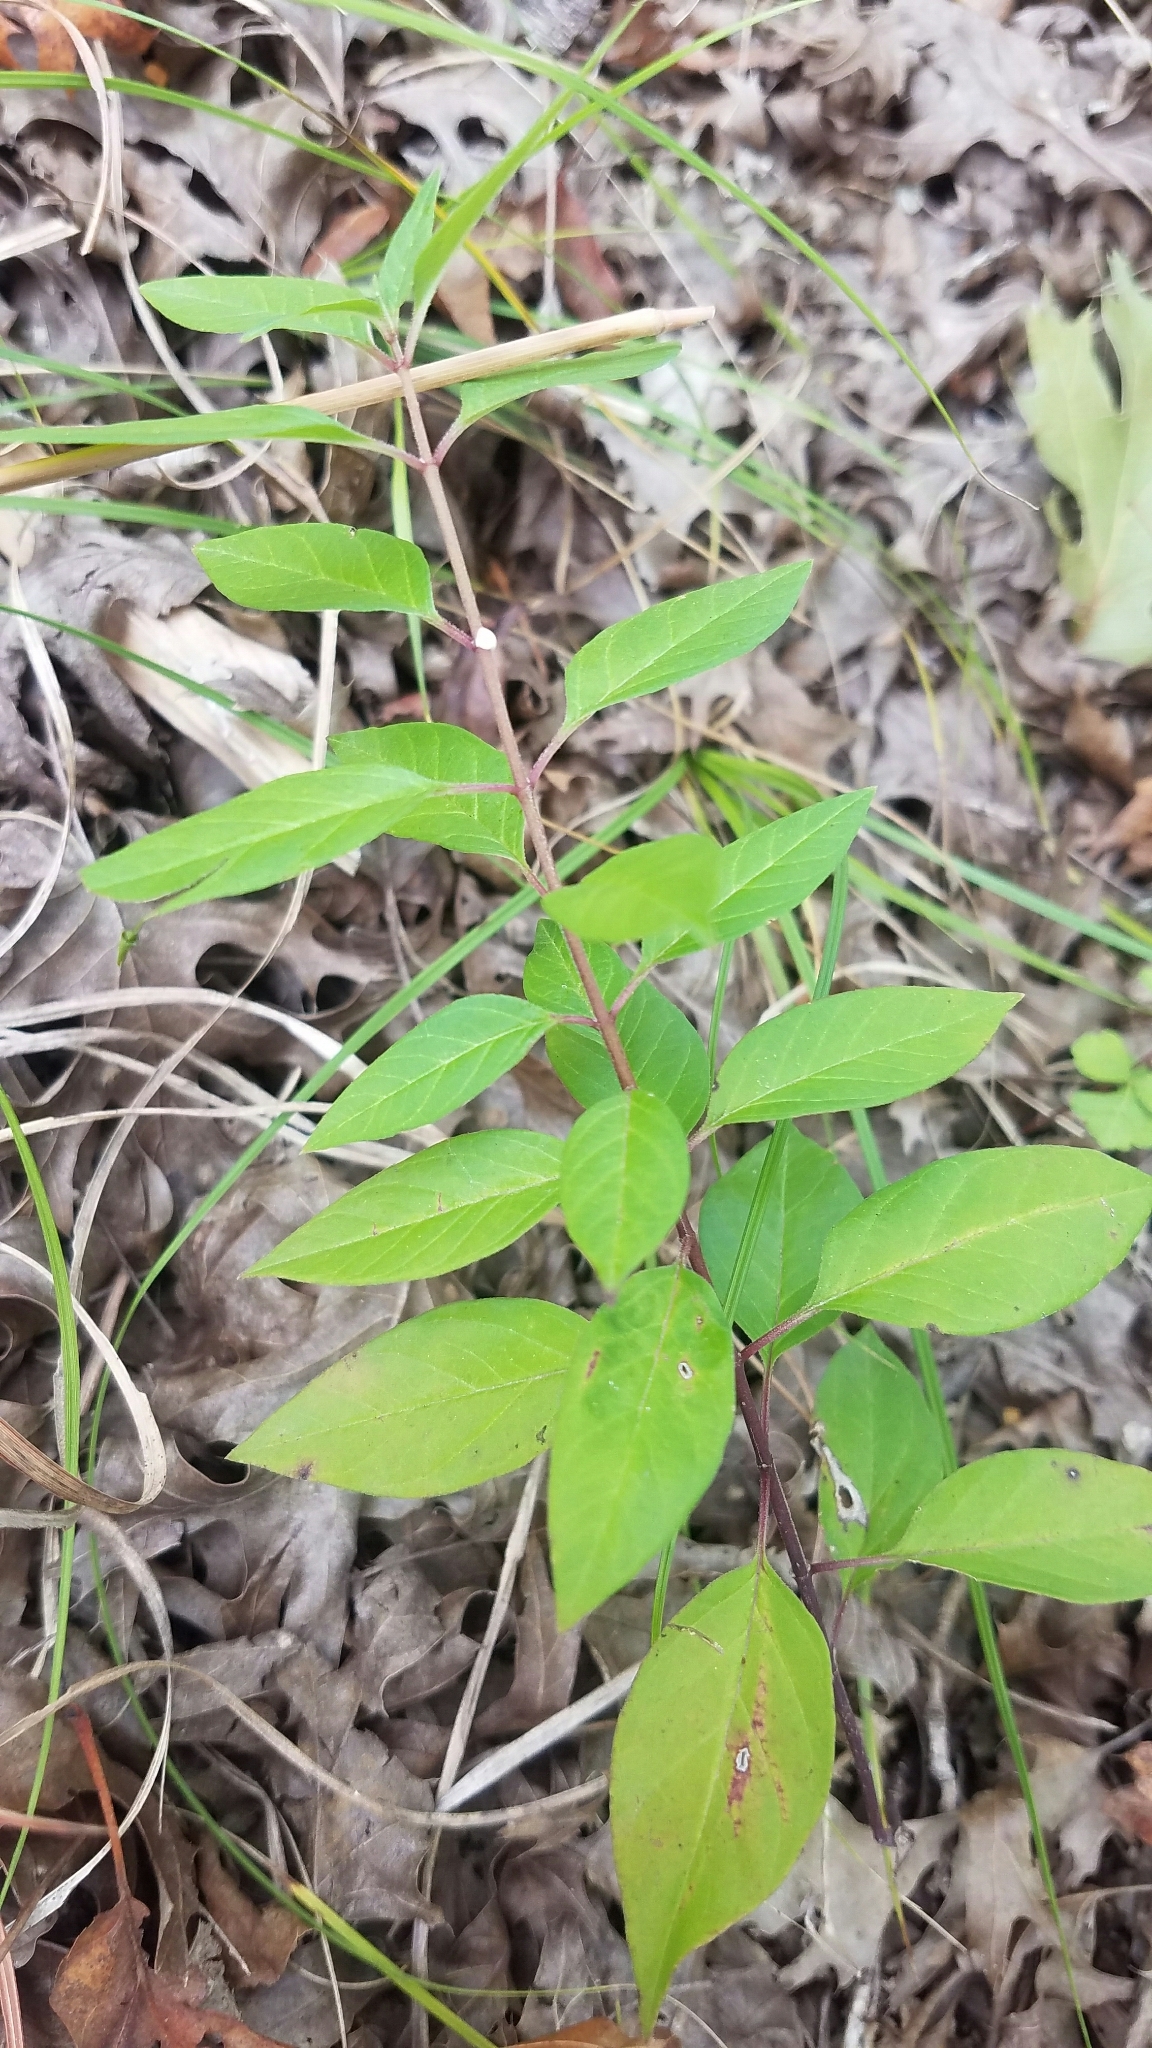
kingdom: Plantae
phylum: Tracheophyta
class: Magnoliopsida
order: Gentianales
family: Apocynaceae
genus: Asclepias
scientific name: Asclepias texana
